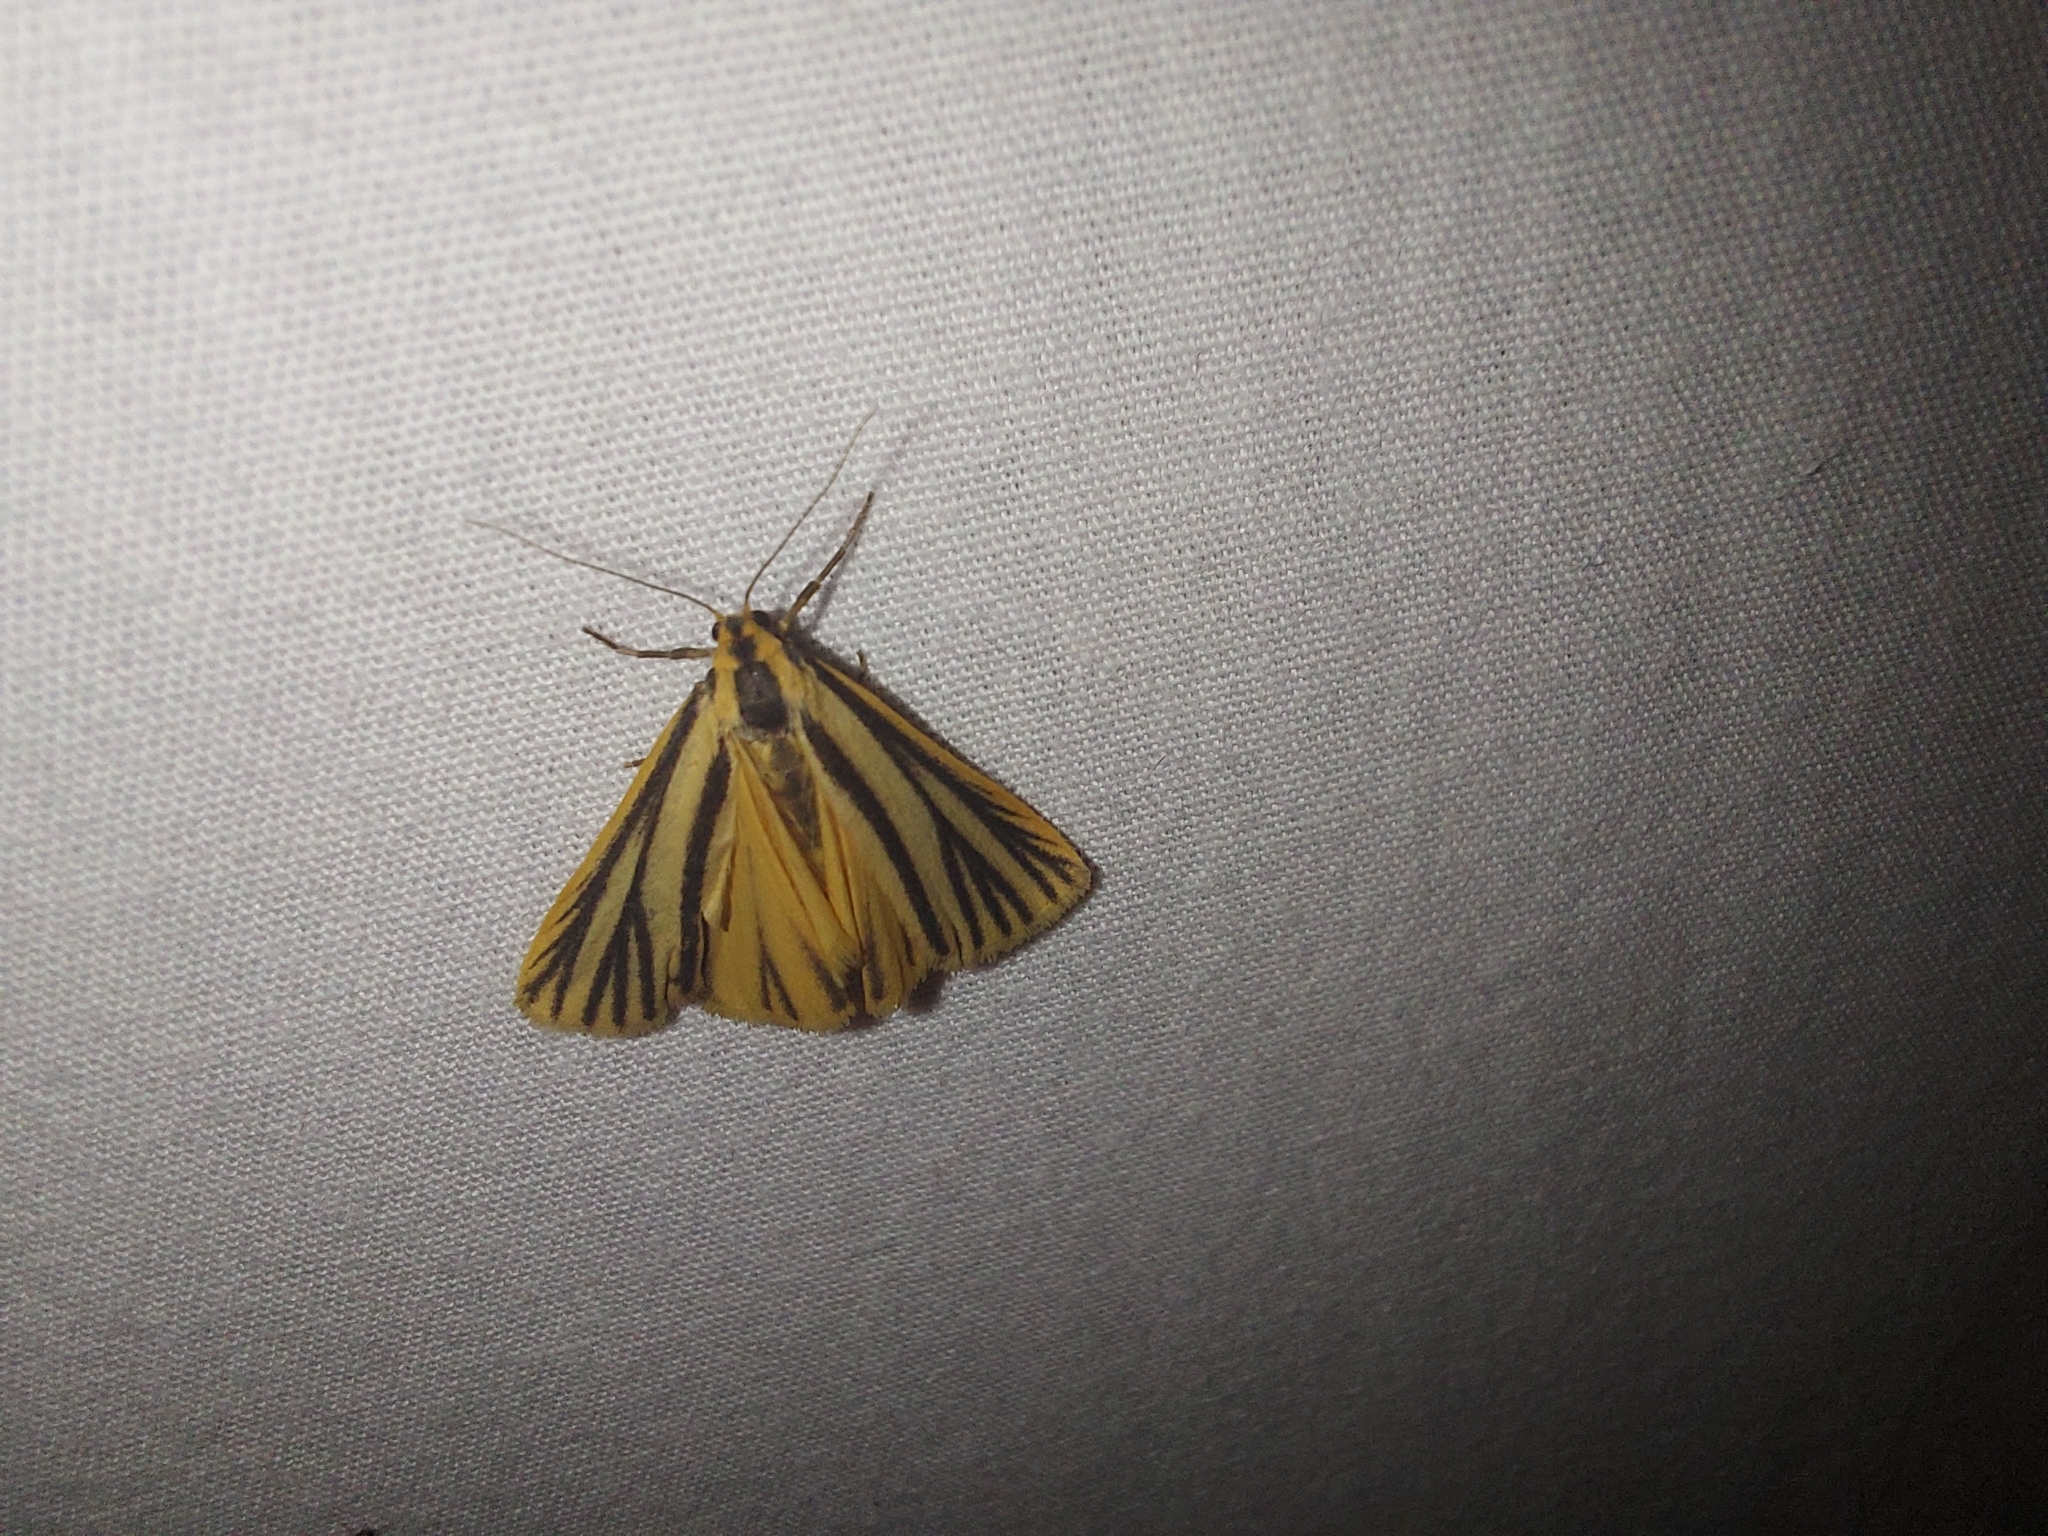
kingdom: Animalia
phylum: Arthropoda
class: Insecta
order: Lepidoptera
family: Erebidae
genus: Phaeophlebosia
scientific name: Phaeophlebosia furcifera
